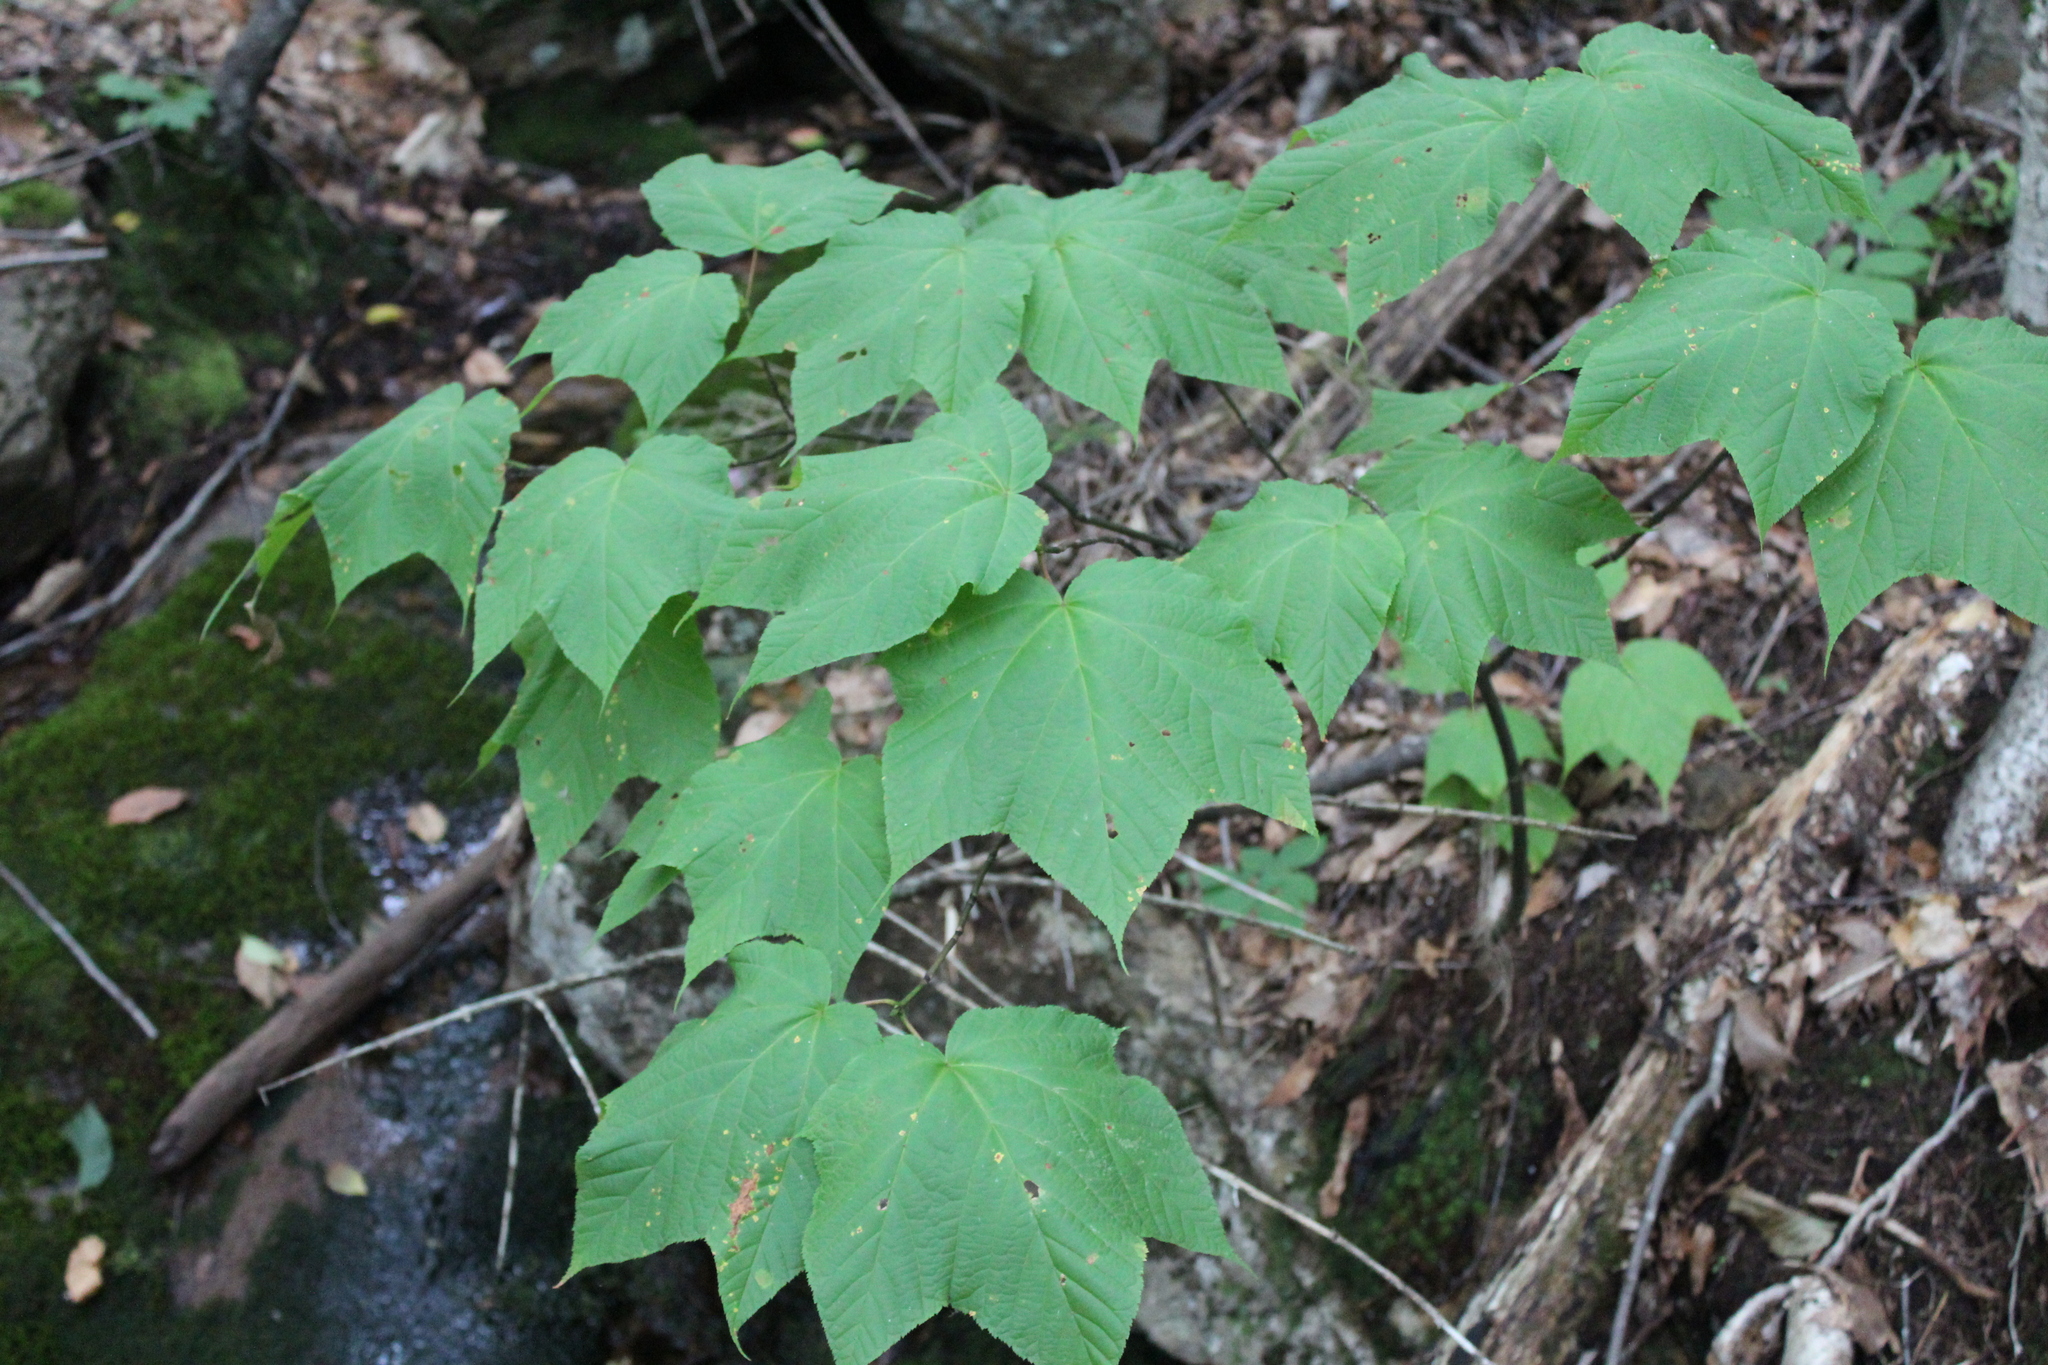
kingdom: Plantae
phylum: Tracheophyta
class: Magnoliopsida
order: Sapindales
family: Sapindaceae
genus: Acer
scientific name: Acer pensylvanicum
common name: Moosewood
